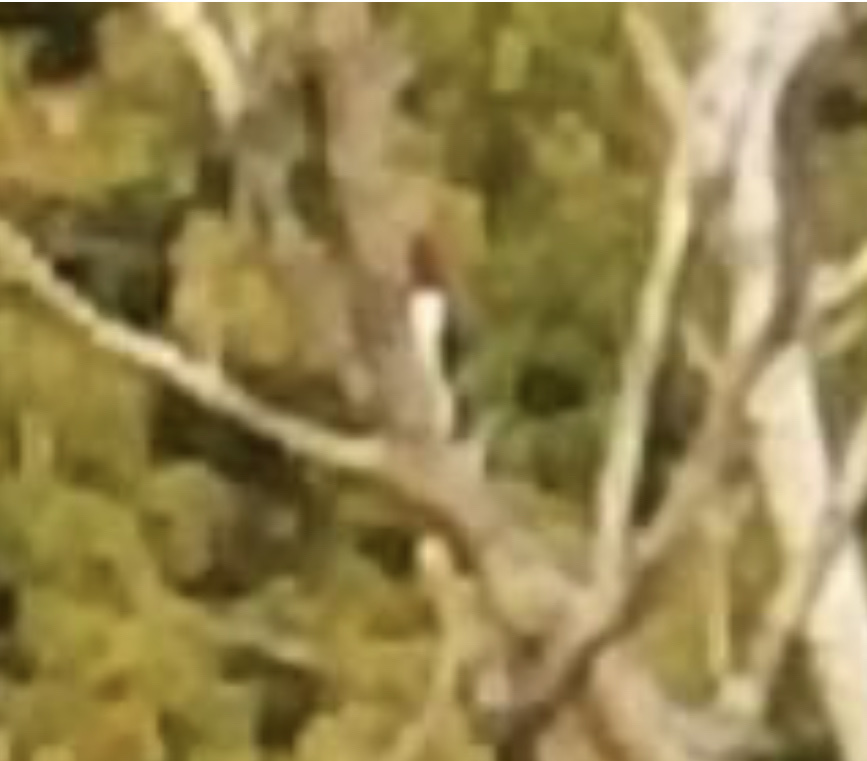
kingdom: Animalia
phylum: Chordata
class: Aves
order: Piciformes
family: Picidae
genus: Melanerpes
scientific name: Melanerpes erythrocephalus
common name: Red-headed woodpecker
